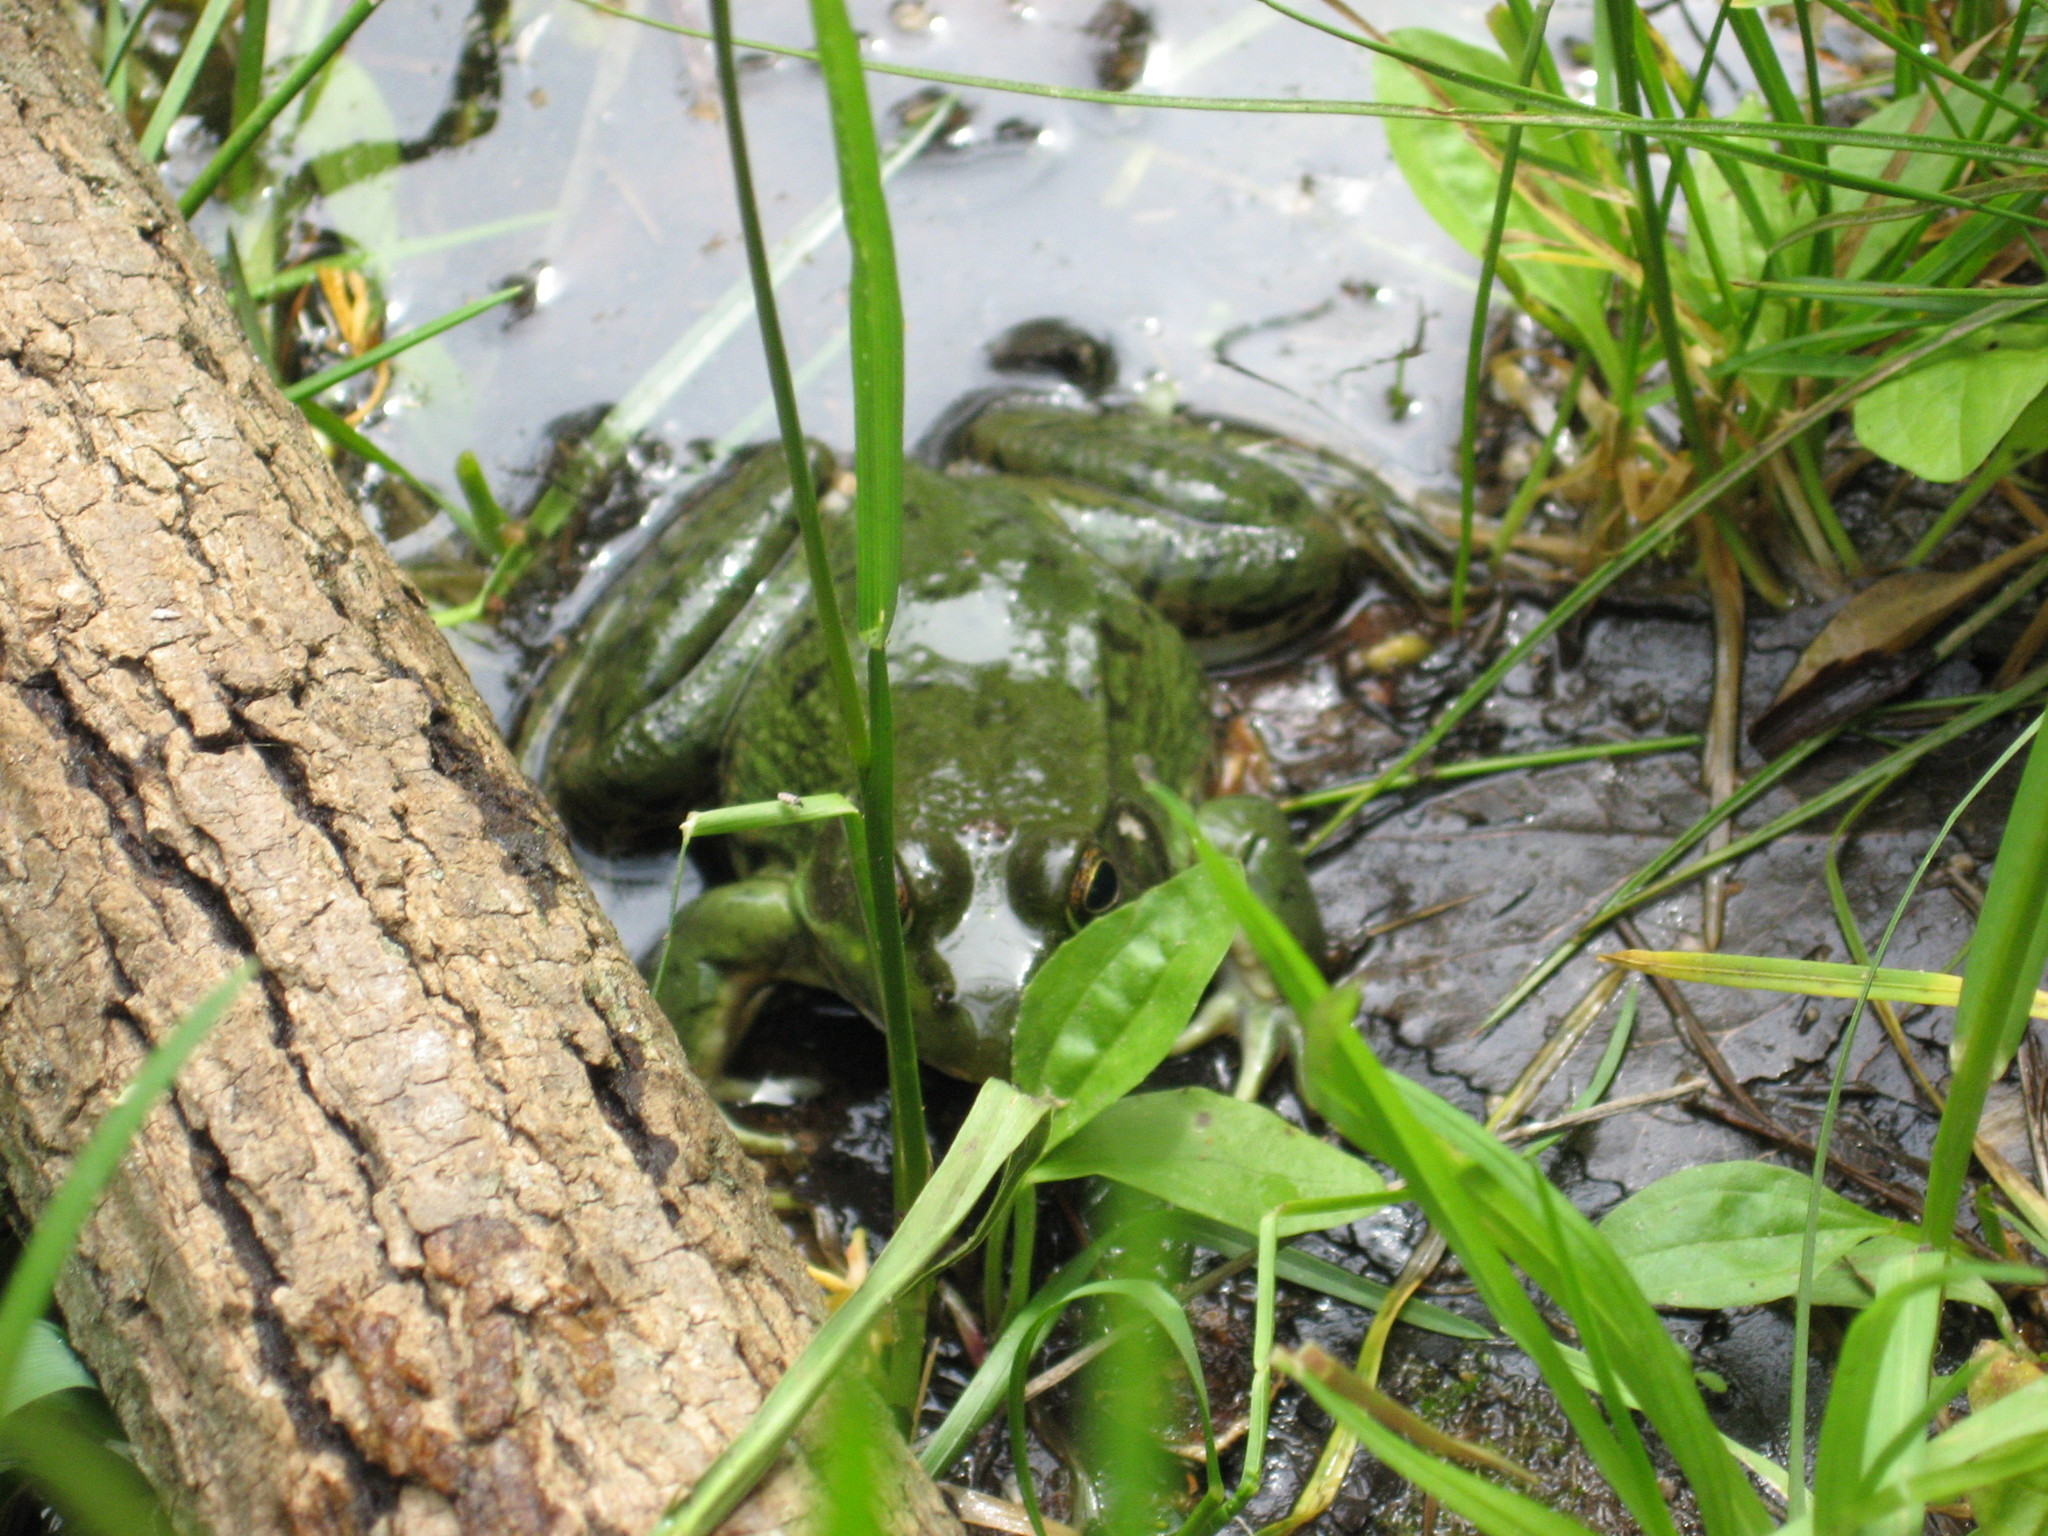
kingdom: Animalia
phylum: Chordata
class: Amphibia
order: Anura
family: Ranidae
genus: Lithobates
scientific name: Lithobates clamitans
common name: Green frog
